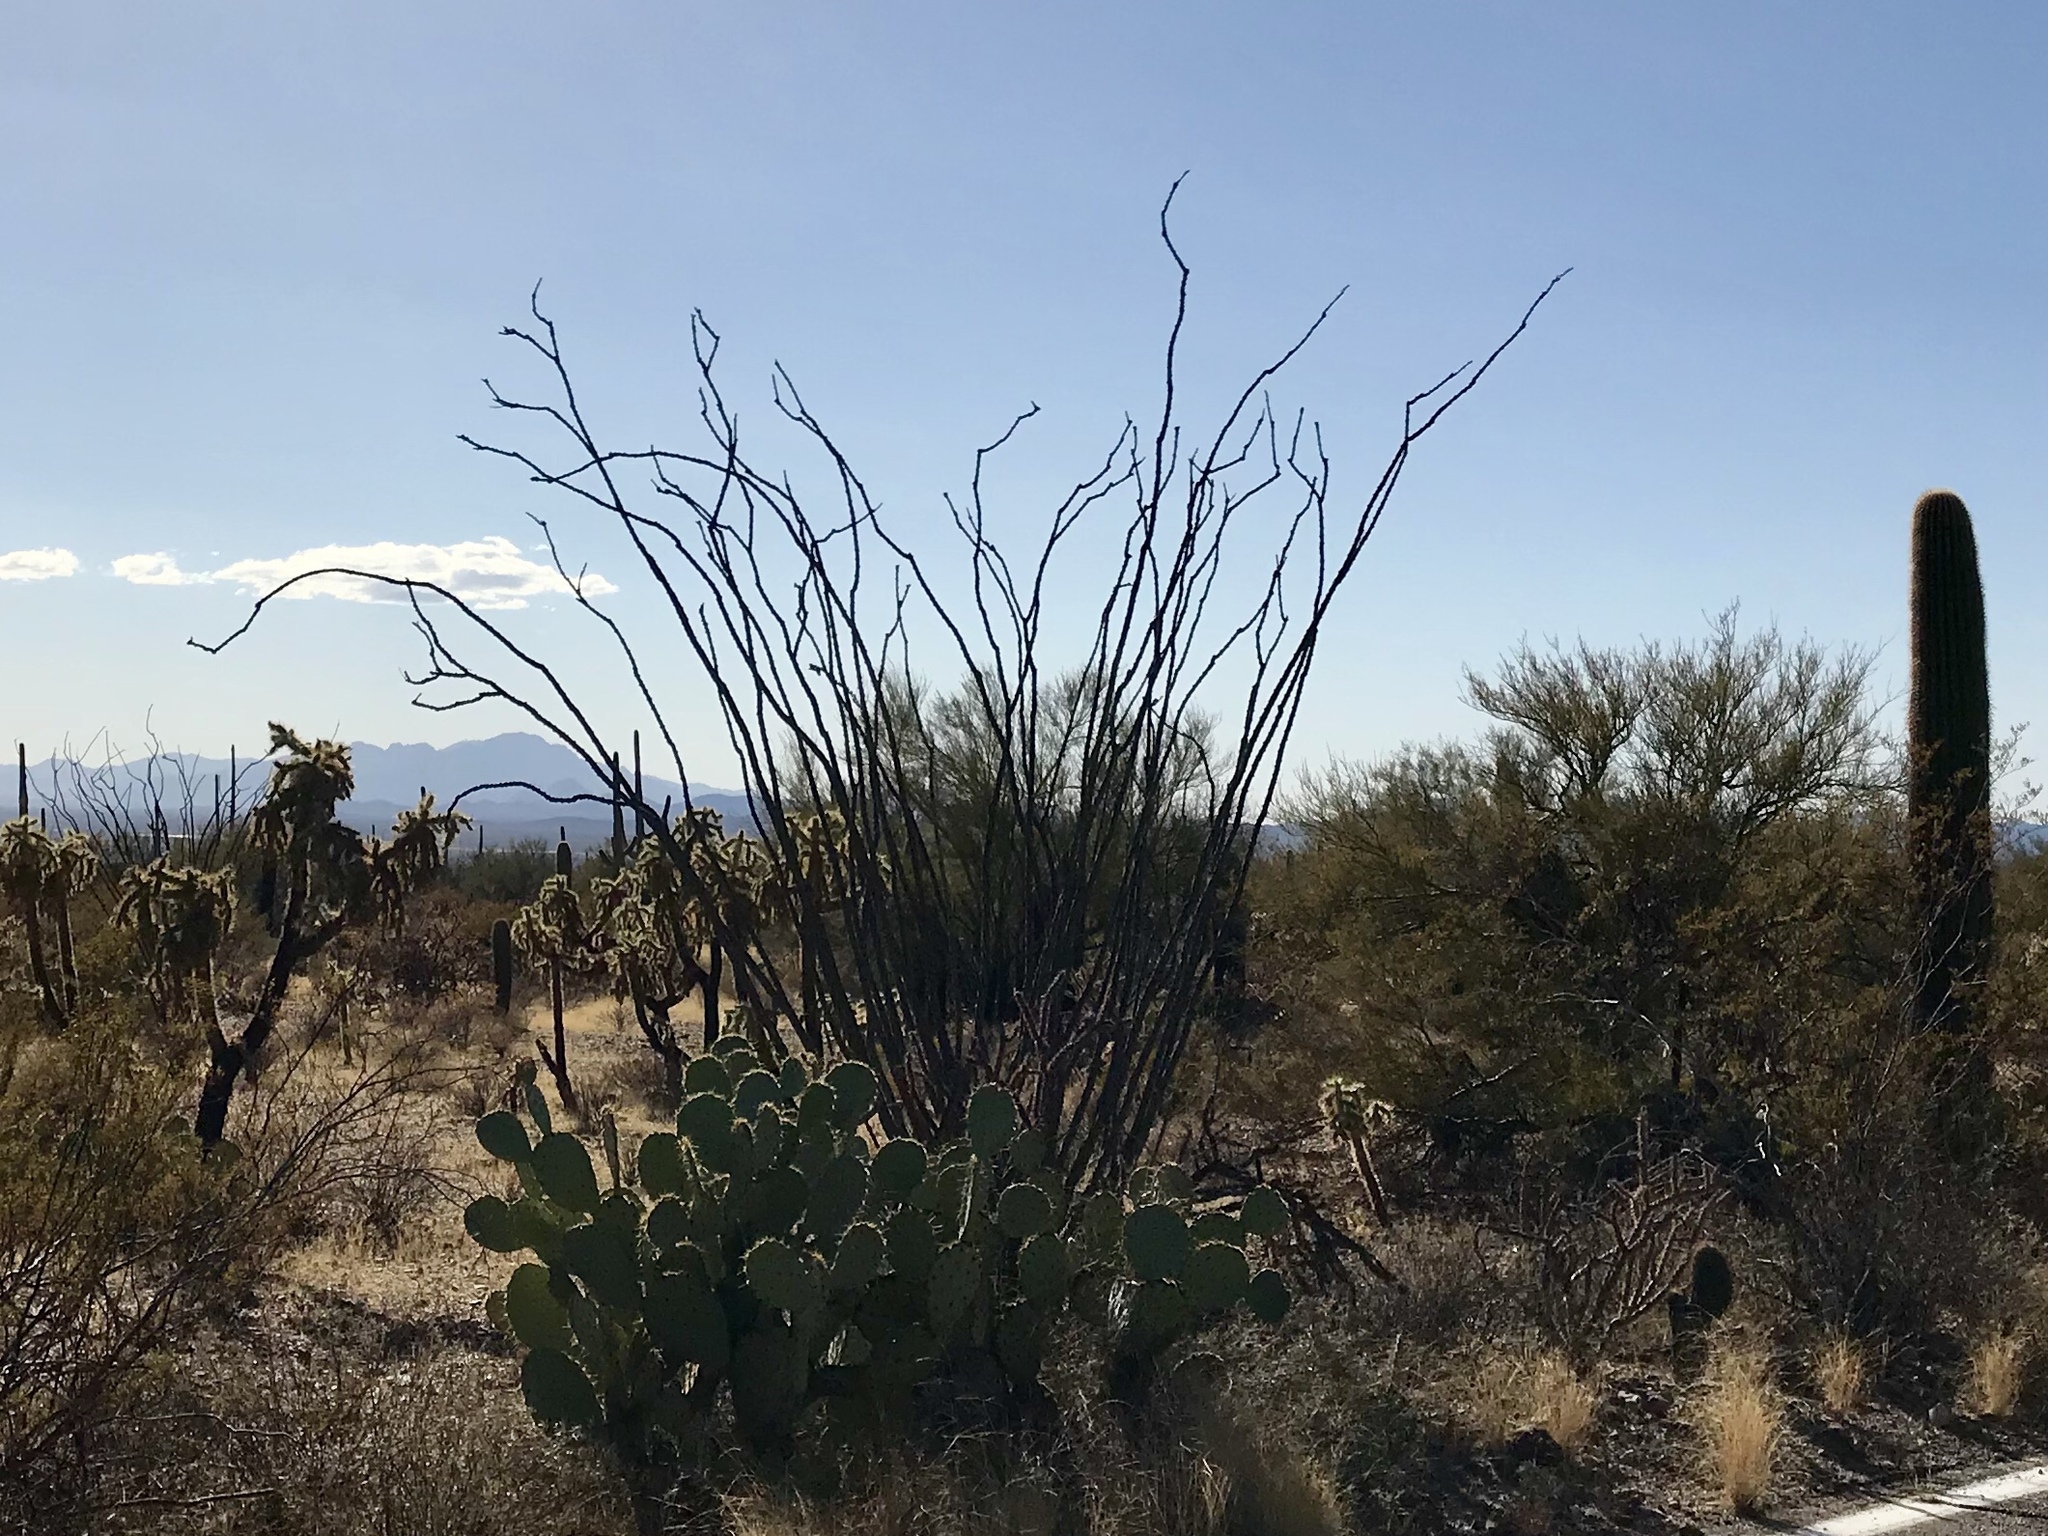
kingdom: Plantae
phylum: Tracheophyta
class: Magnoliopsida
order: Ericales
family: Fouquieriaceae
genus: Fouquieria
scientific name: Fouquieria splendens
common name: Vine-cactus
